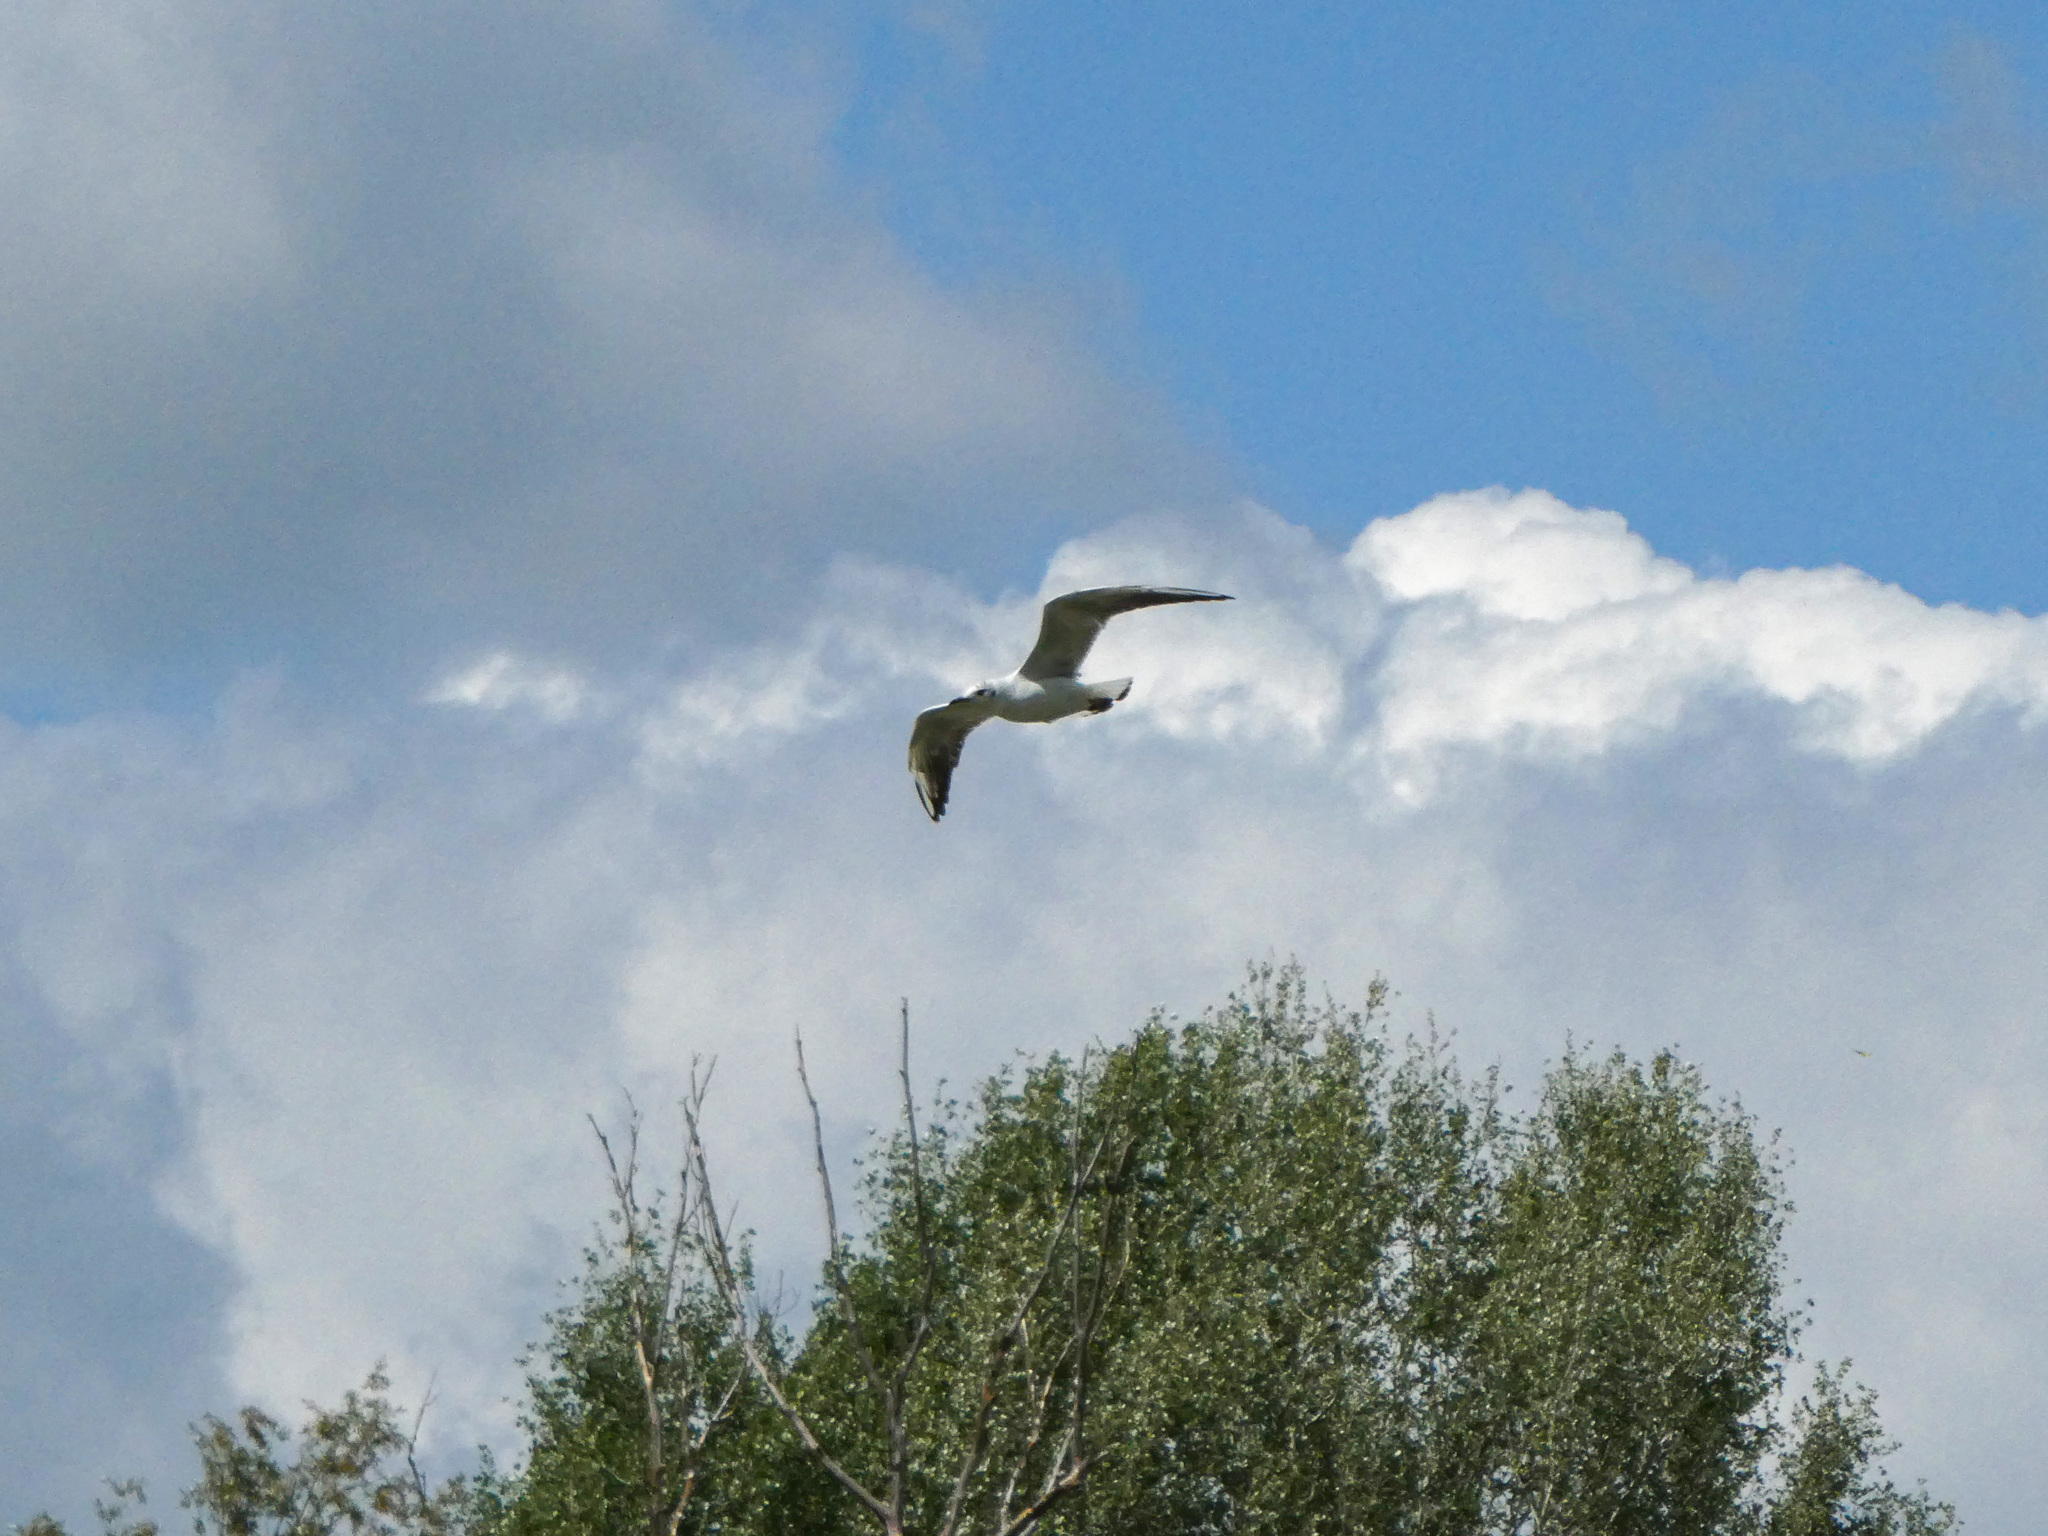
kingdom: Animalia
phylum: Chordata
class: Aves
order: Charadriiformes
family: Laridae
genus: Chroicocephalus
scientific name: Chroicocephalus ridibundus
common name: Black-headed gull
